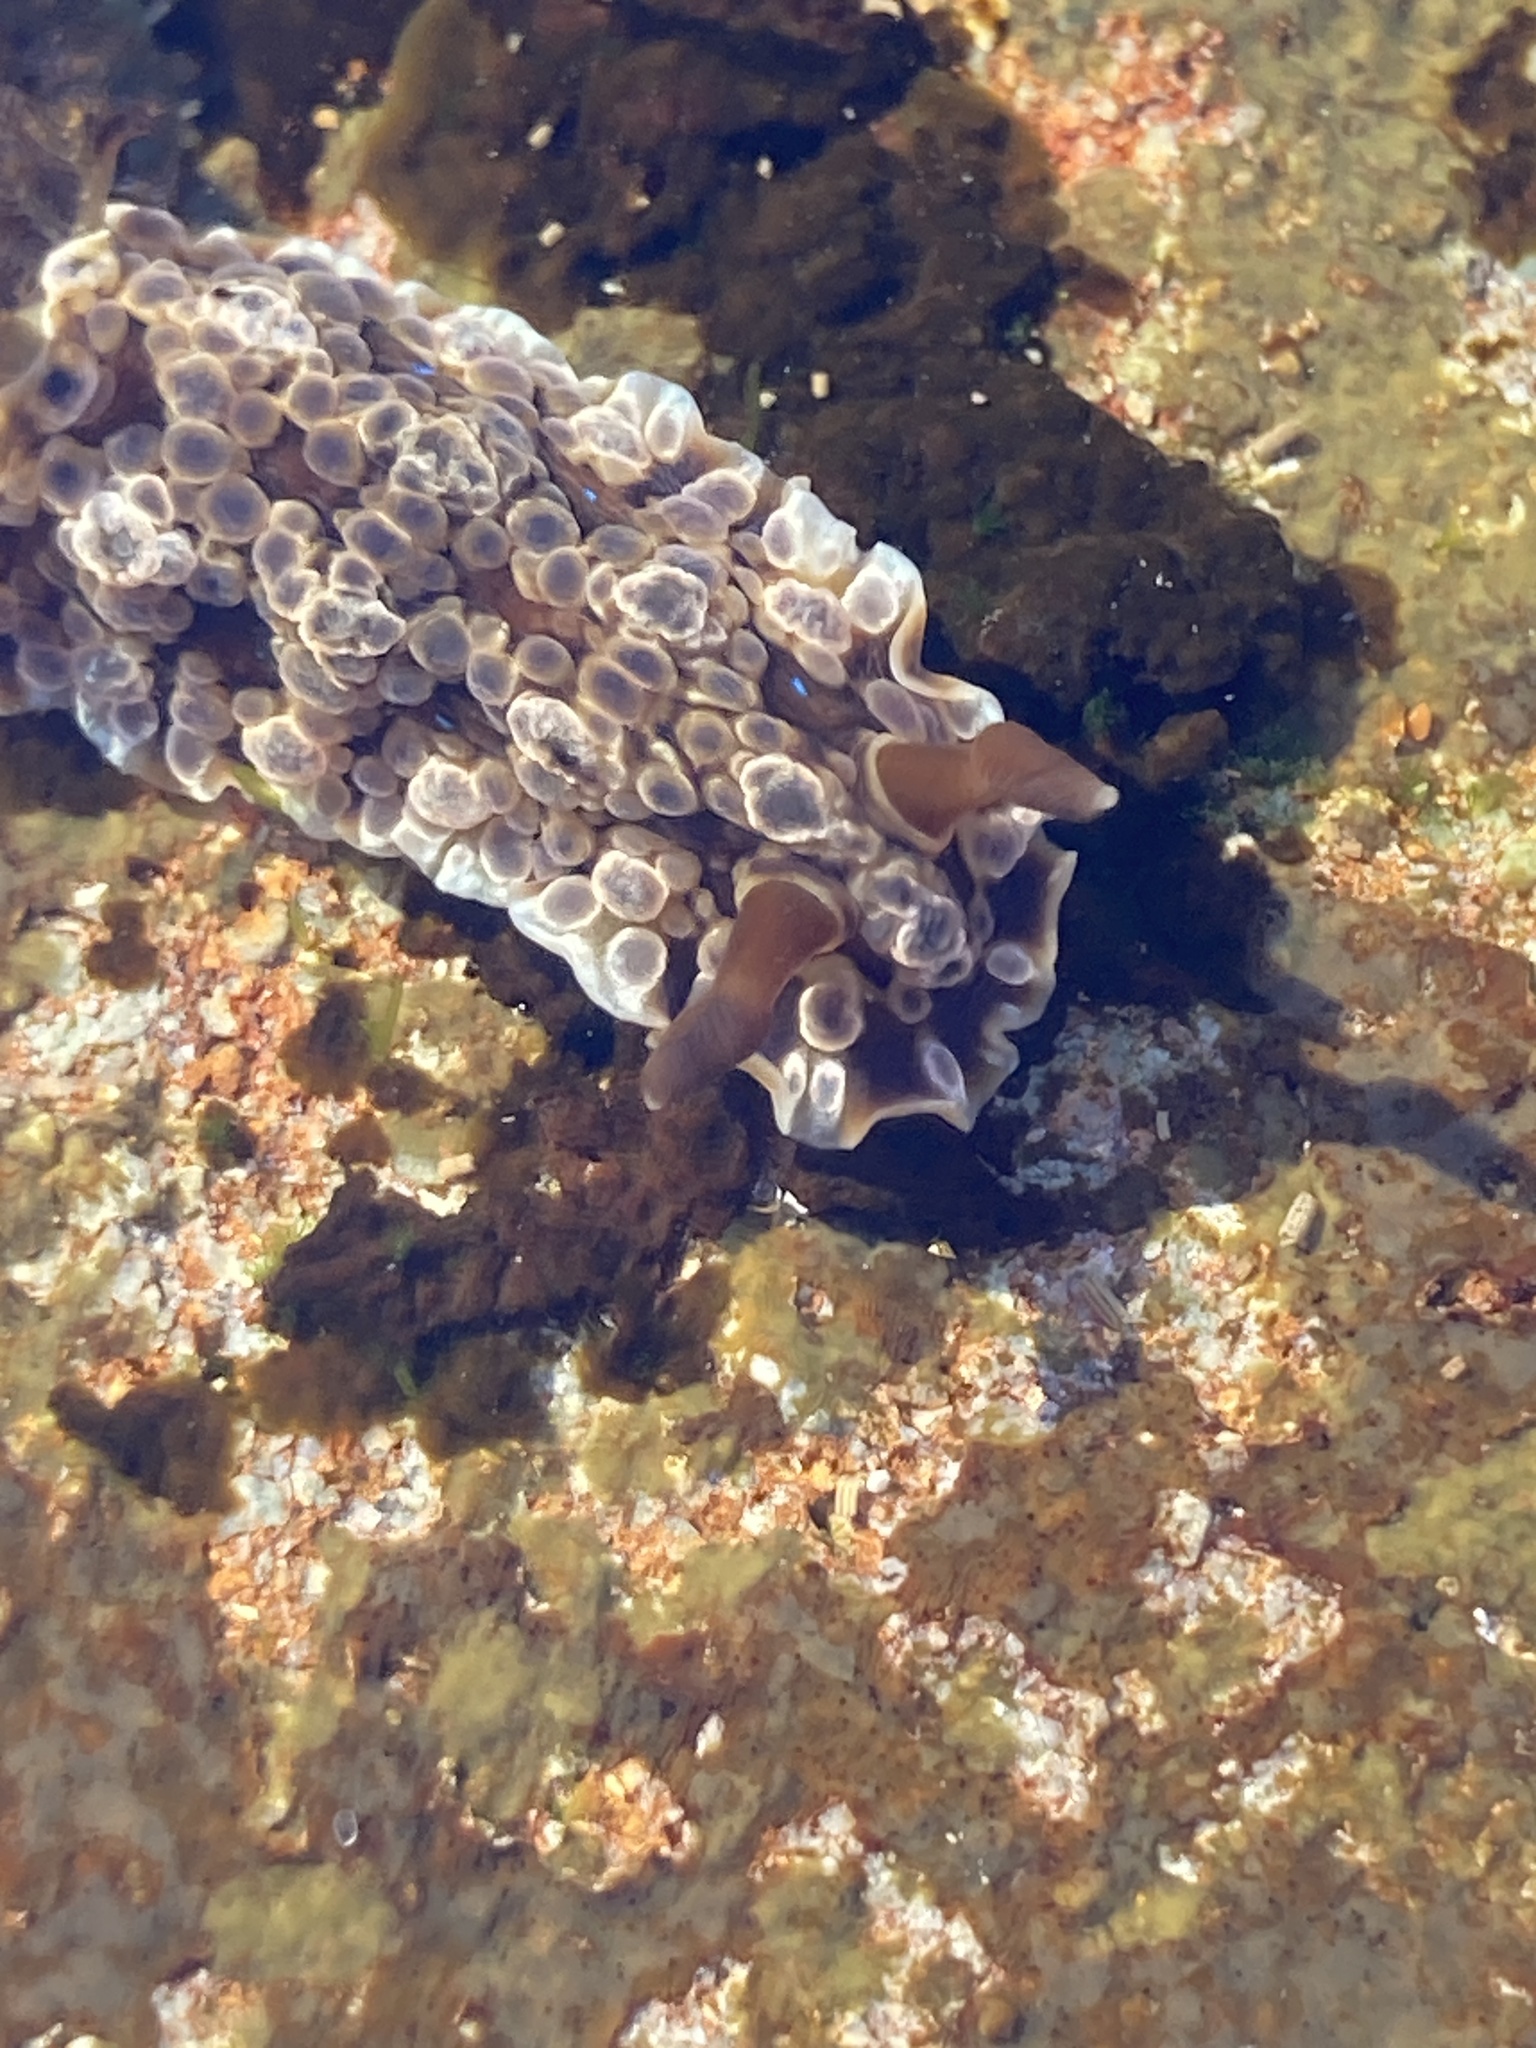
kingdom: Animalia
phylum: Mollusca
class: Gastropoda
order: Nudibranchia
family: Dendrodorididae
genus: Dendrodoris
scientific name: Dendrodoris krusensternii
